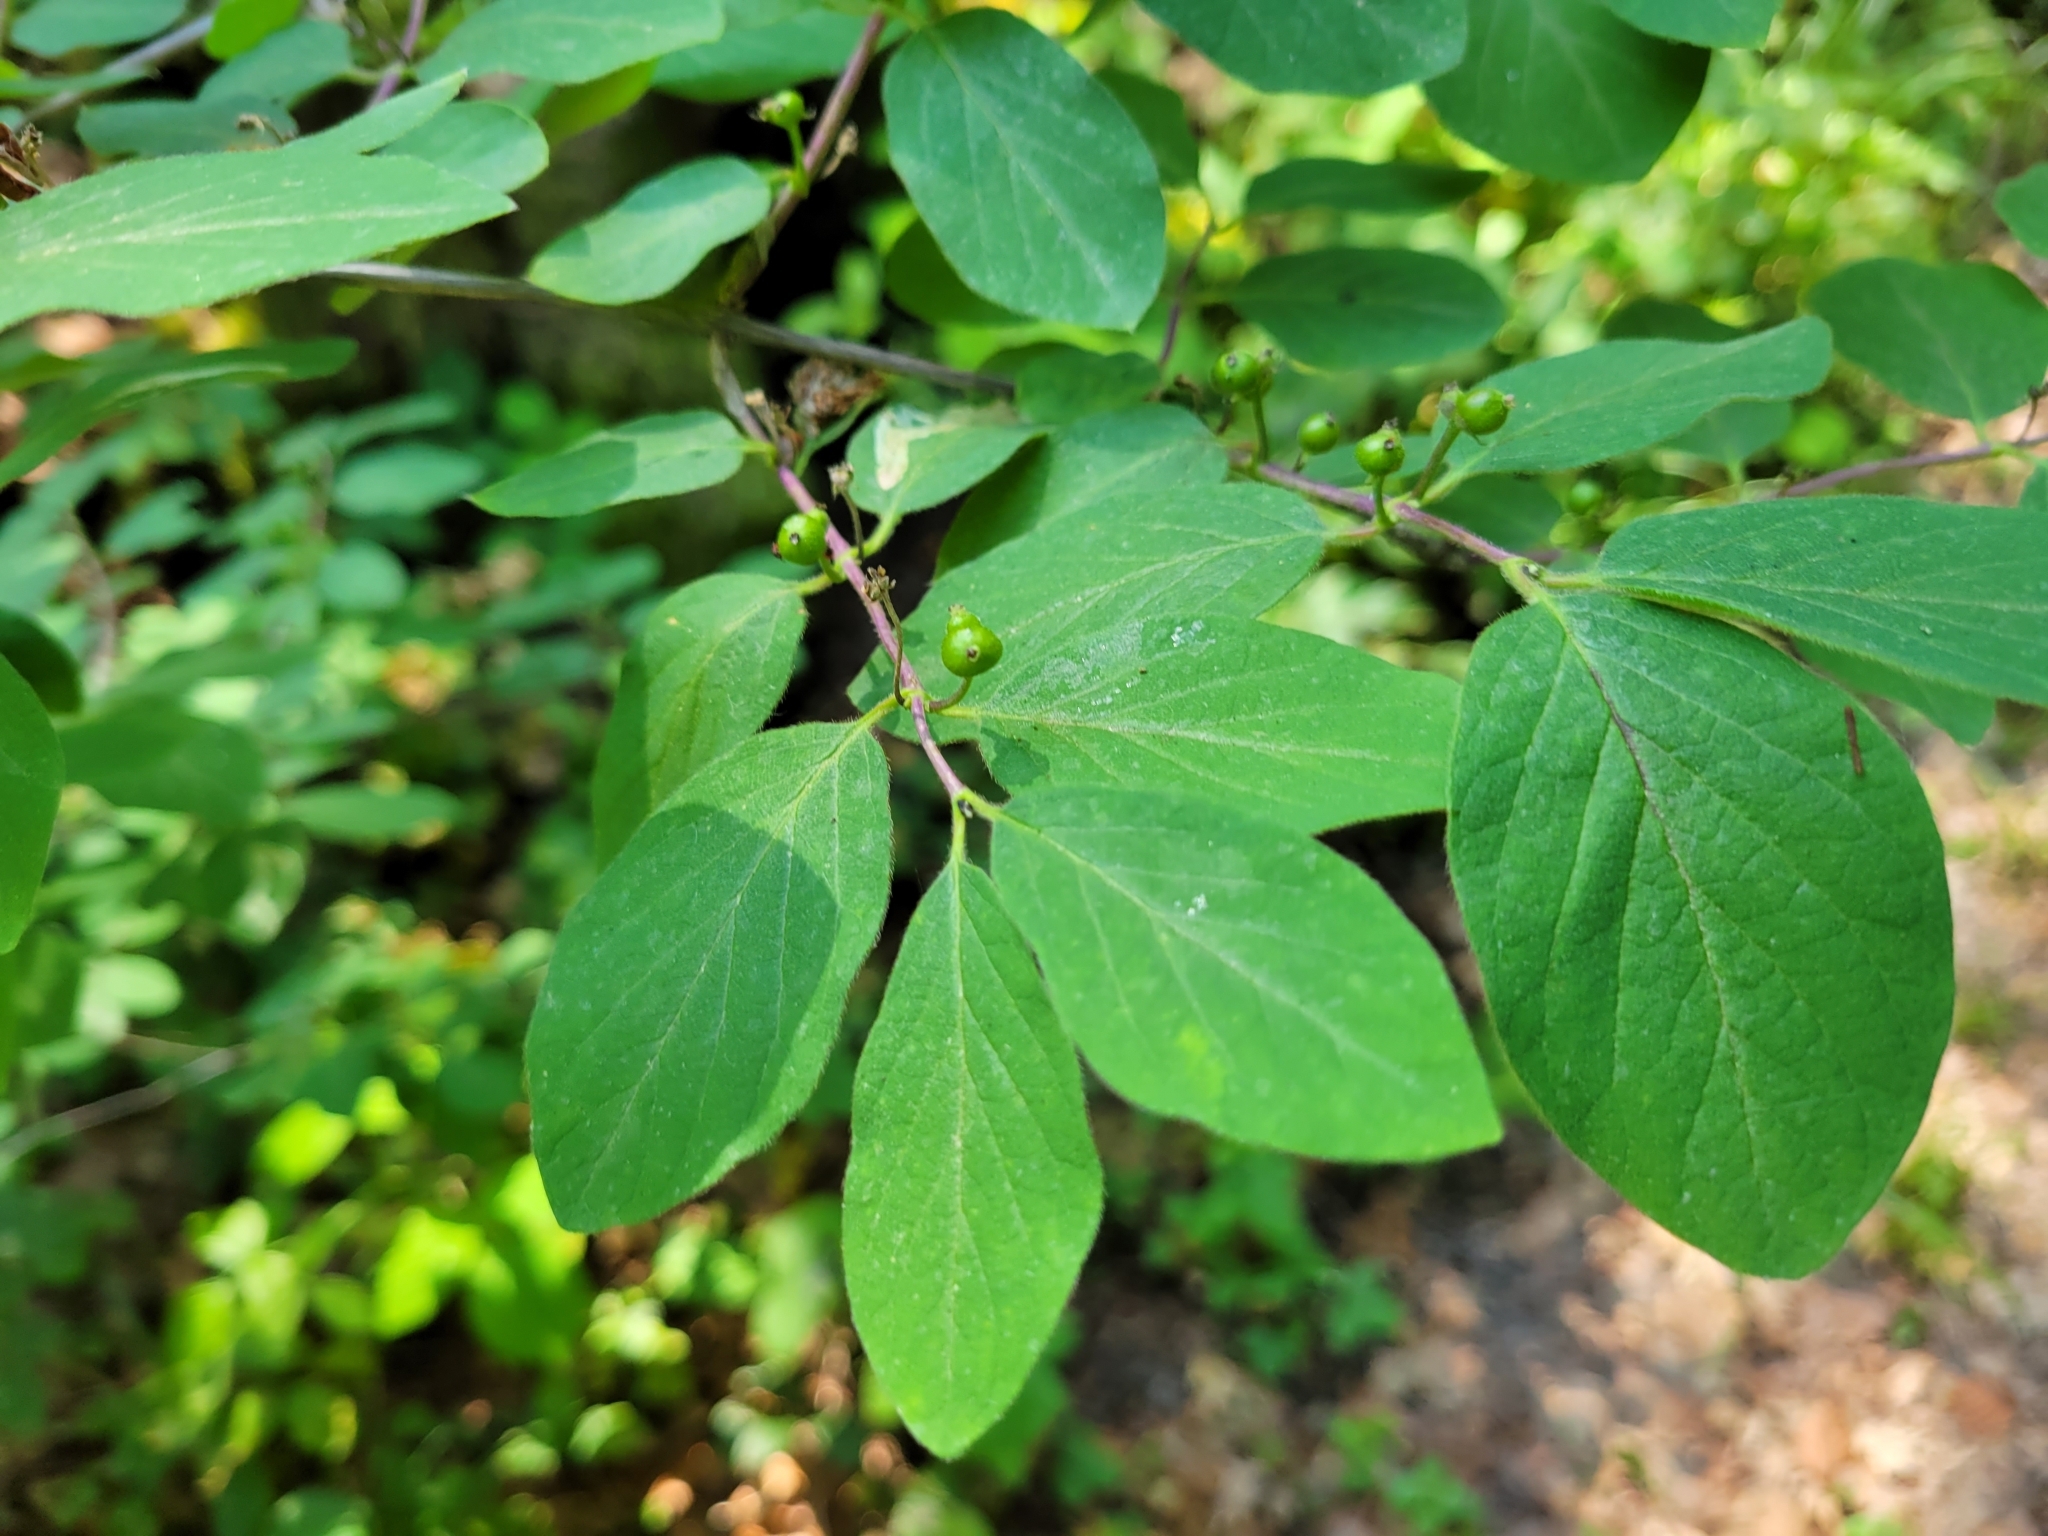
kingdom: Plantae
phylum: Tracheophyta
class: Magnoliopsida
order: Dipsacales
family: Caprifoliaceae
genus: Lonicera
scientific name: Lonicera xylosteum
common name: Fly honeysuckle
